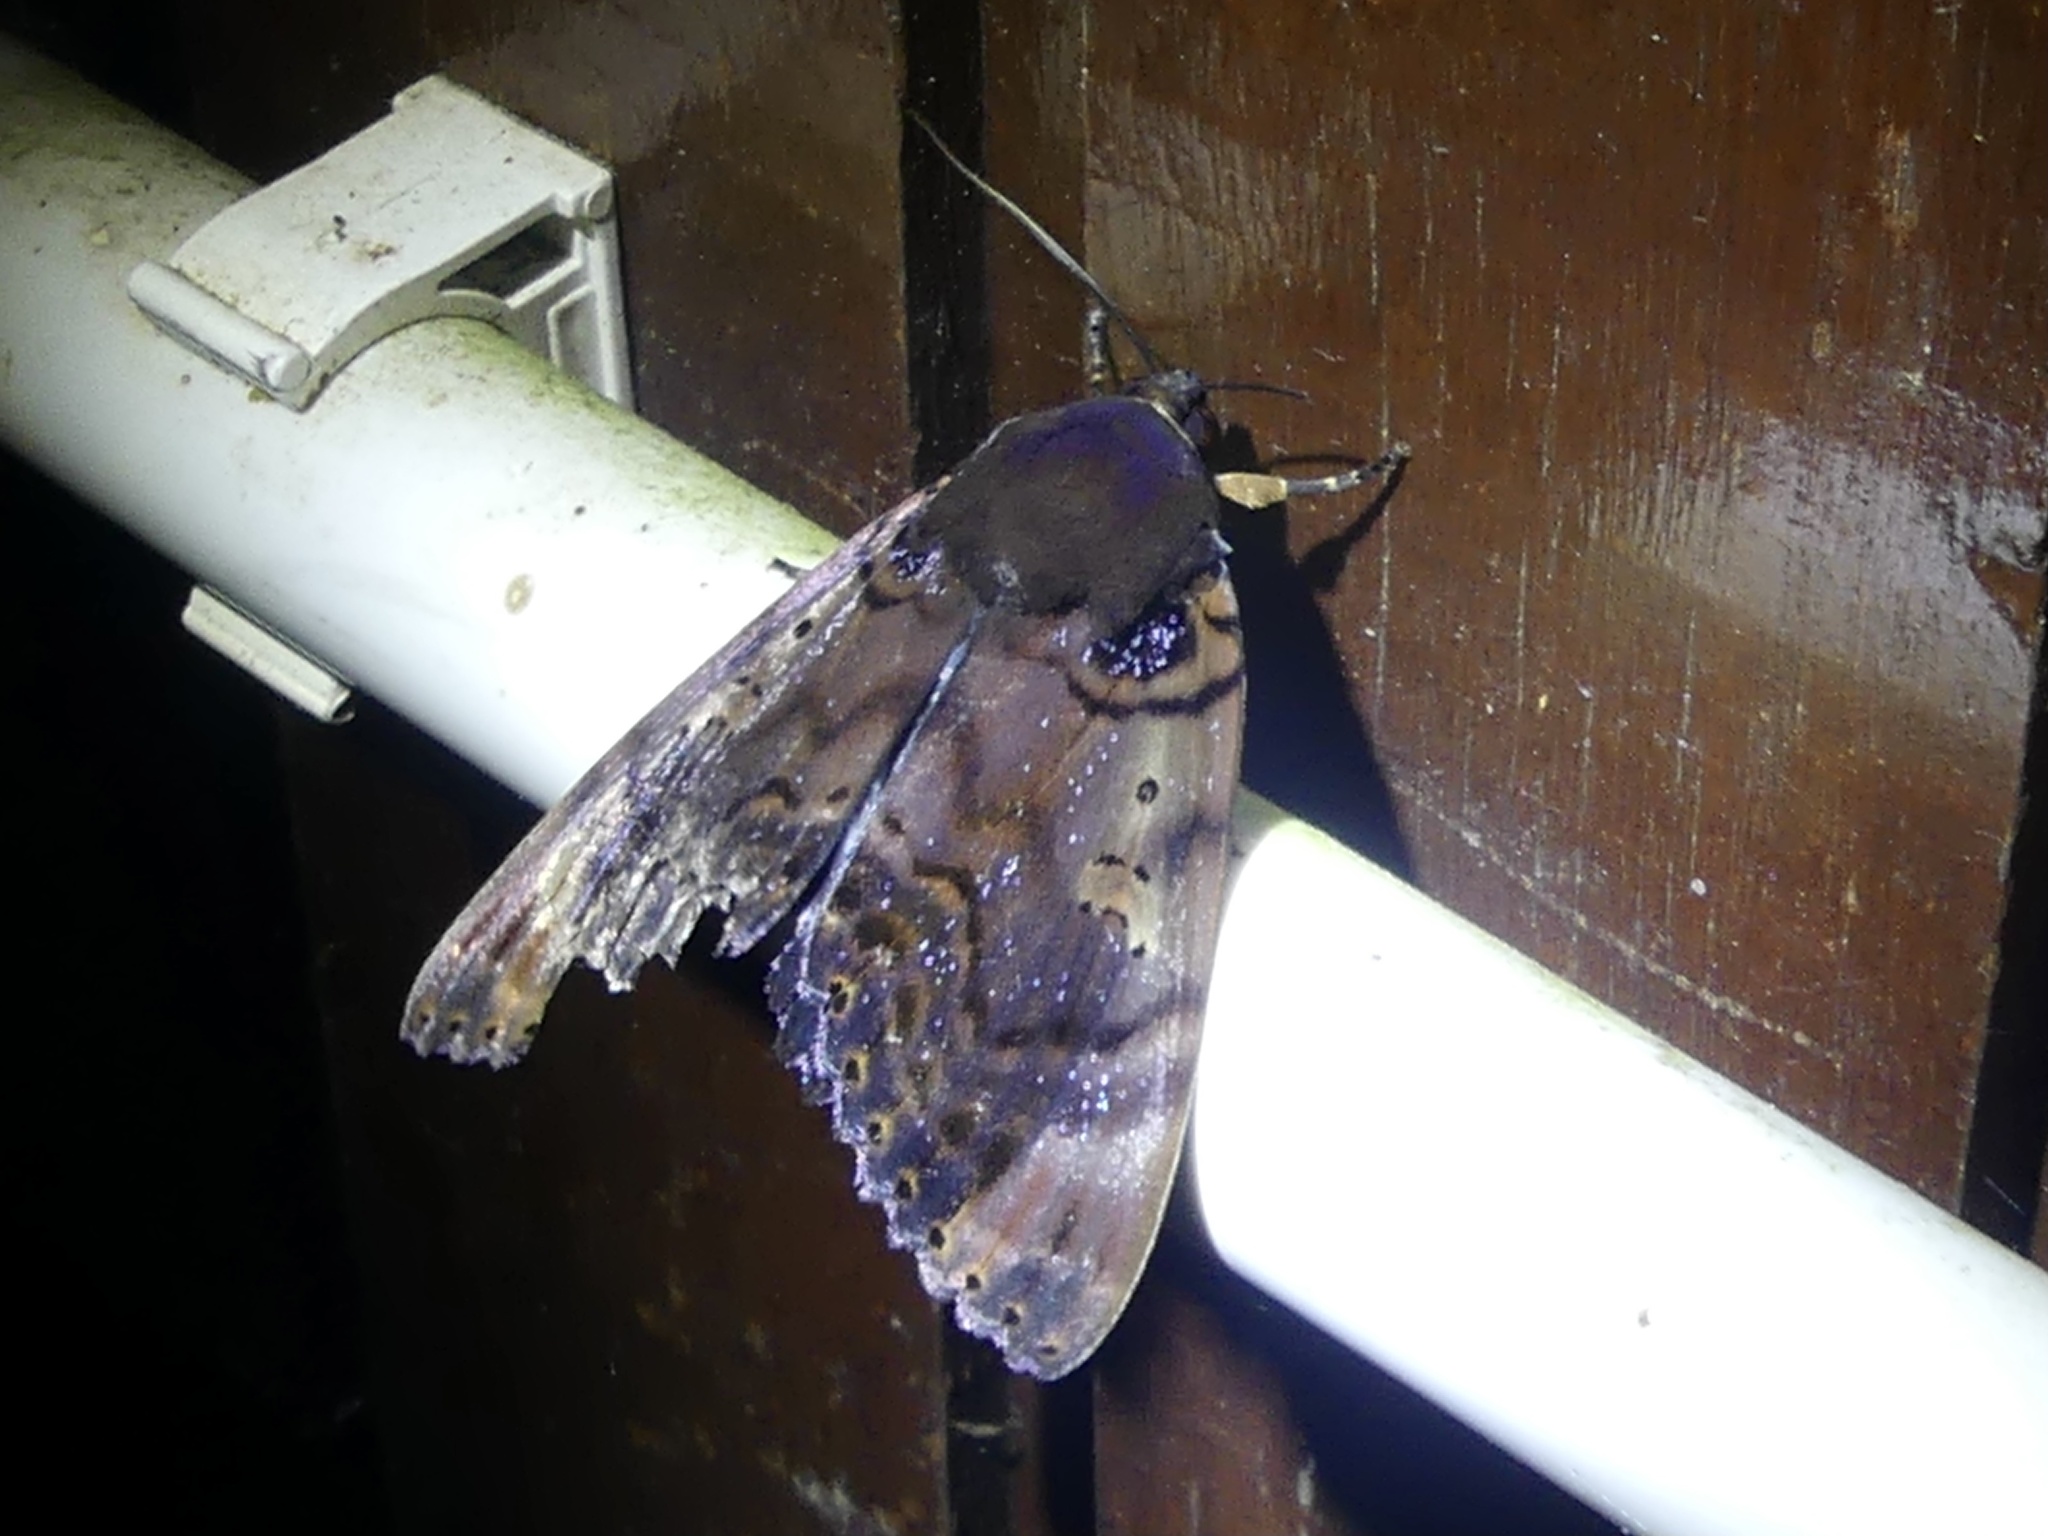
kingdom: Animalia
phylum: Arthropoda
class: Insecta
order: Lepidoptera
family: Erebidae
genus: Arcte
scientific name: Arcte modesta
